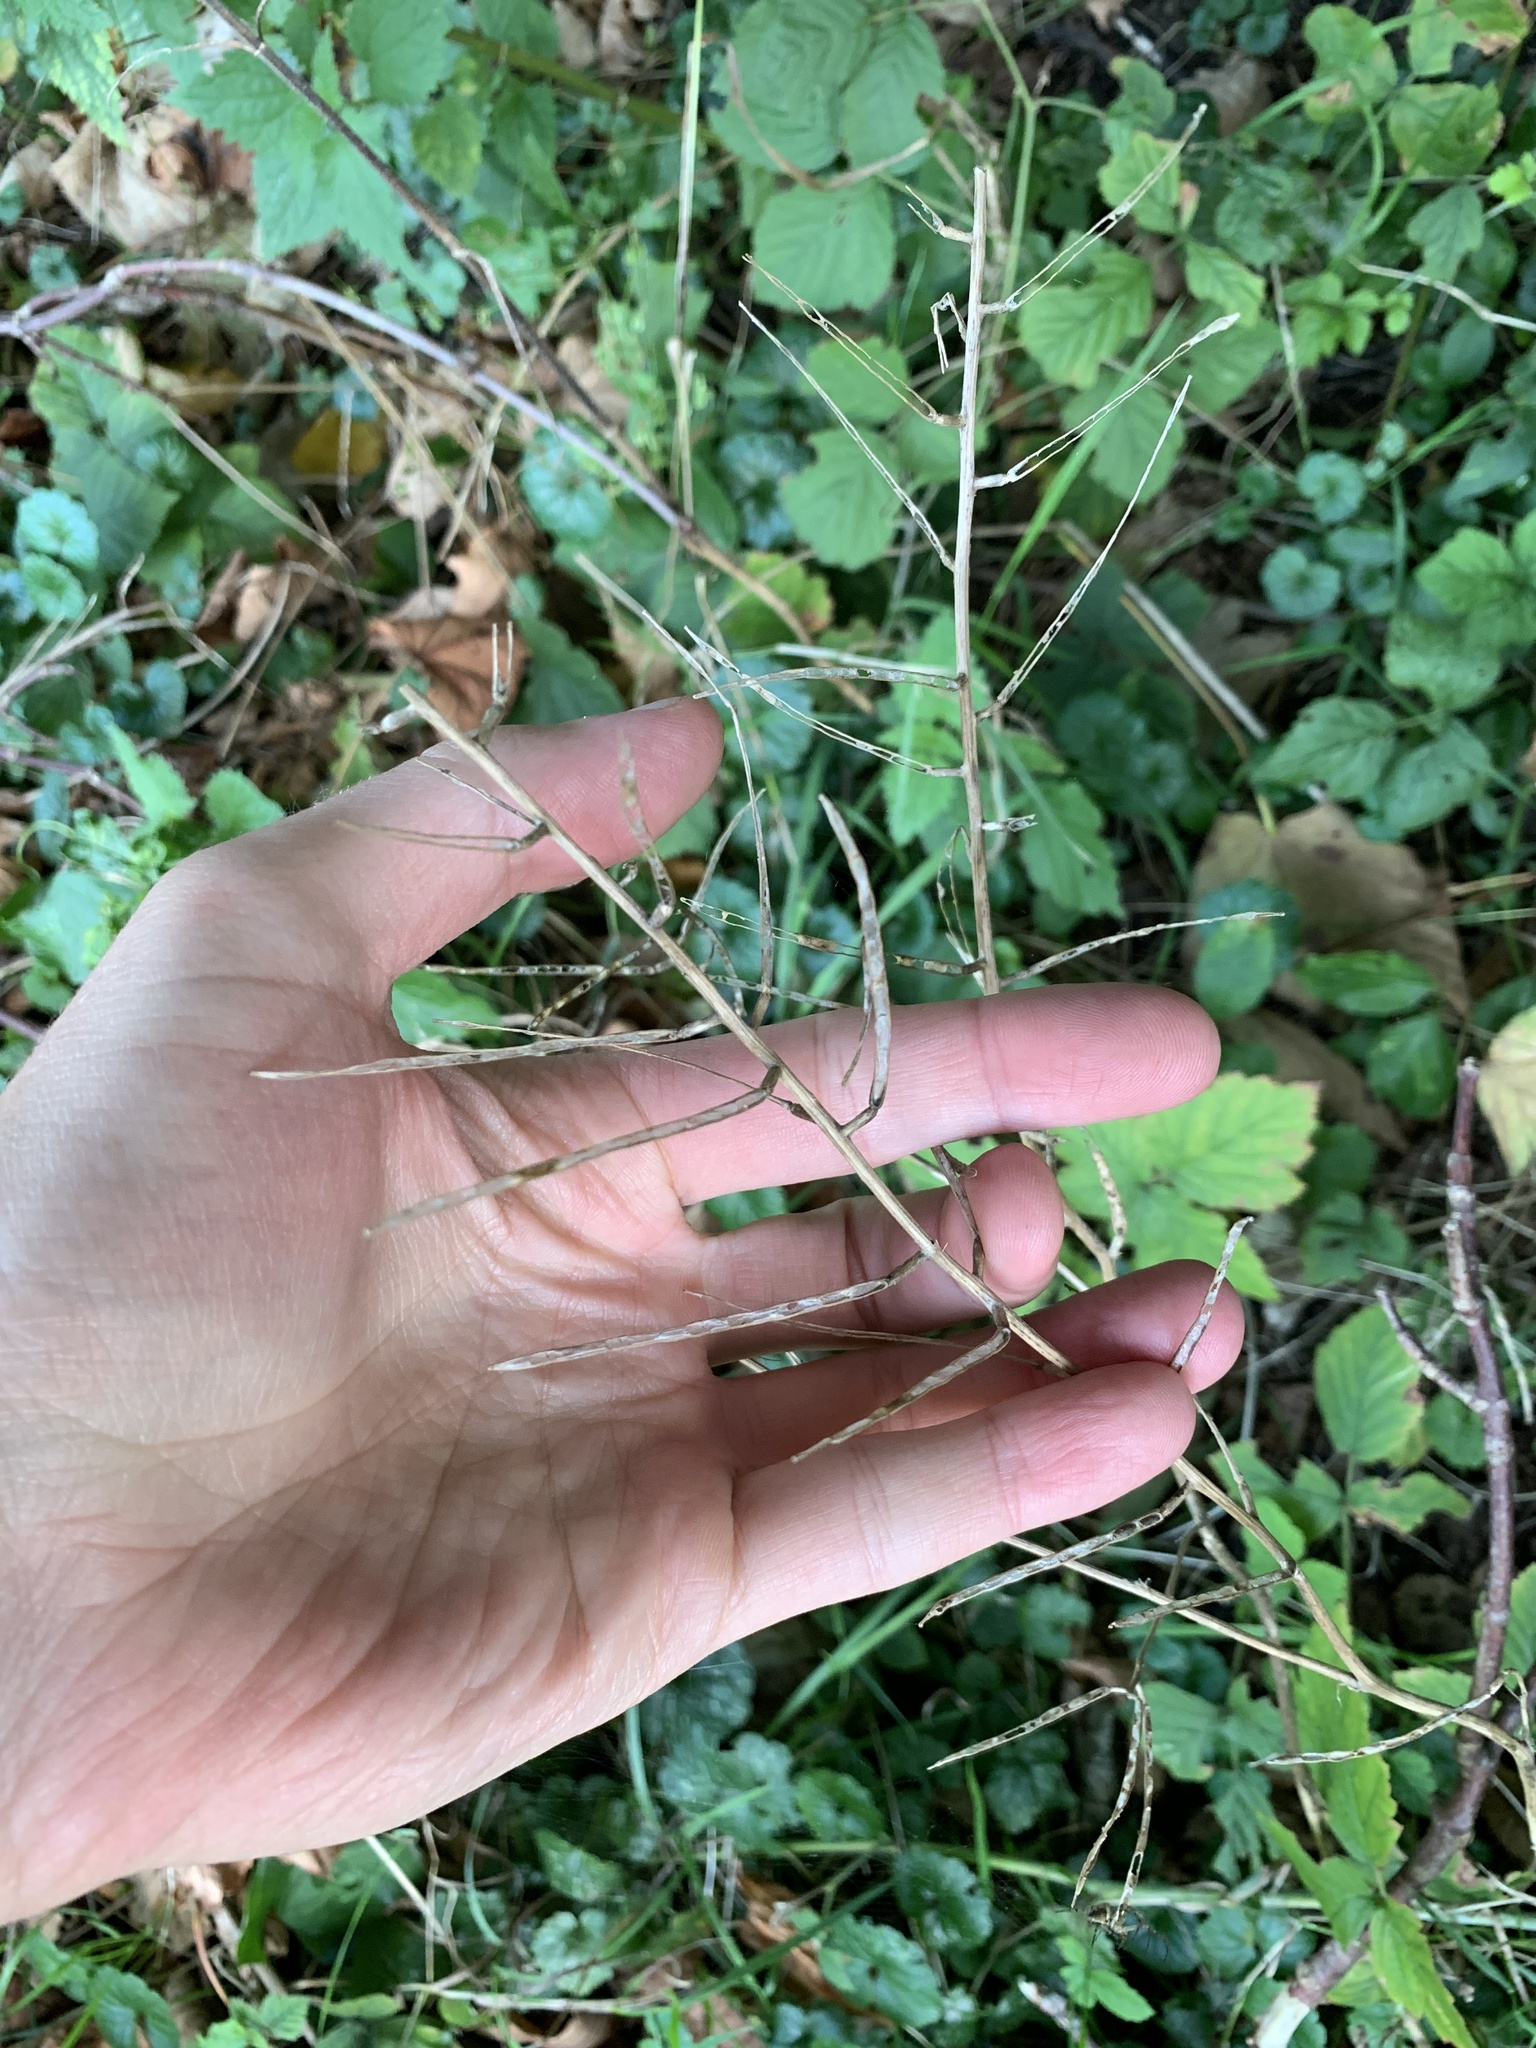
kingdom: Plantae
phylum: Tracheophyta
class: Magnoliopsida
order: Brassicales
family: Brassicaceae
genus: Alliaria
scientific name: Alliaria petiolata
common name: Garlic mustard
